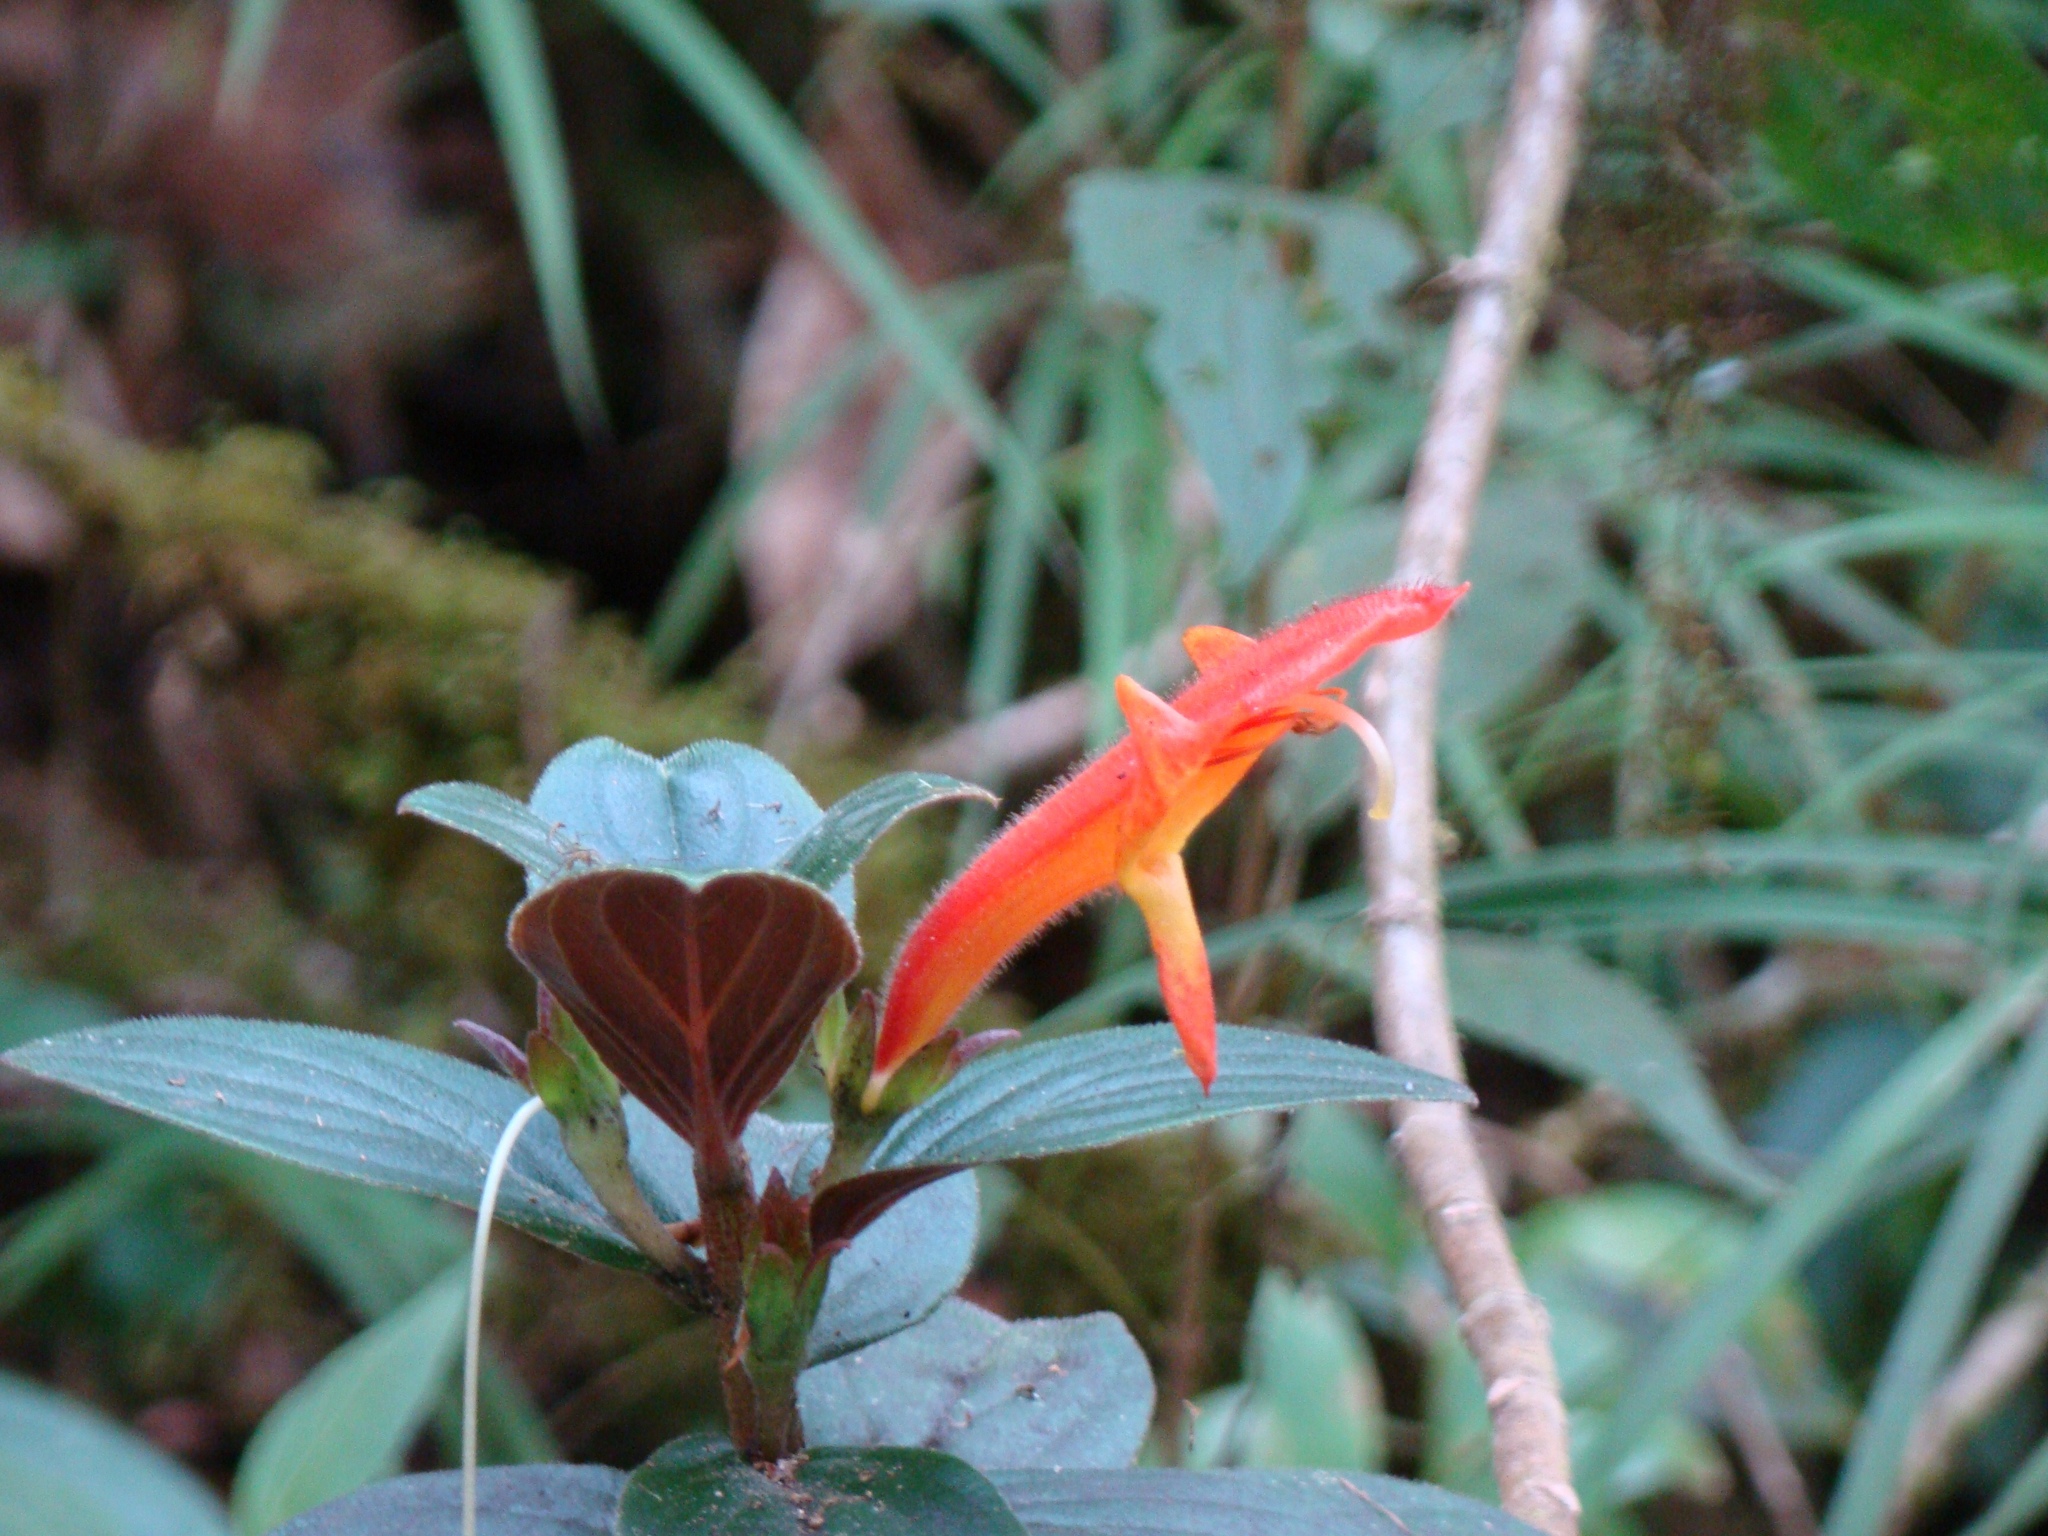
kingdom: Plantae
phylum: Tracheophyta
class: Magnoliopsida
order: Lamiales
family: Gesneriaceae
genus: Columnea
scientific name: Columnea magnifica
